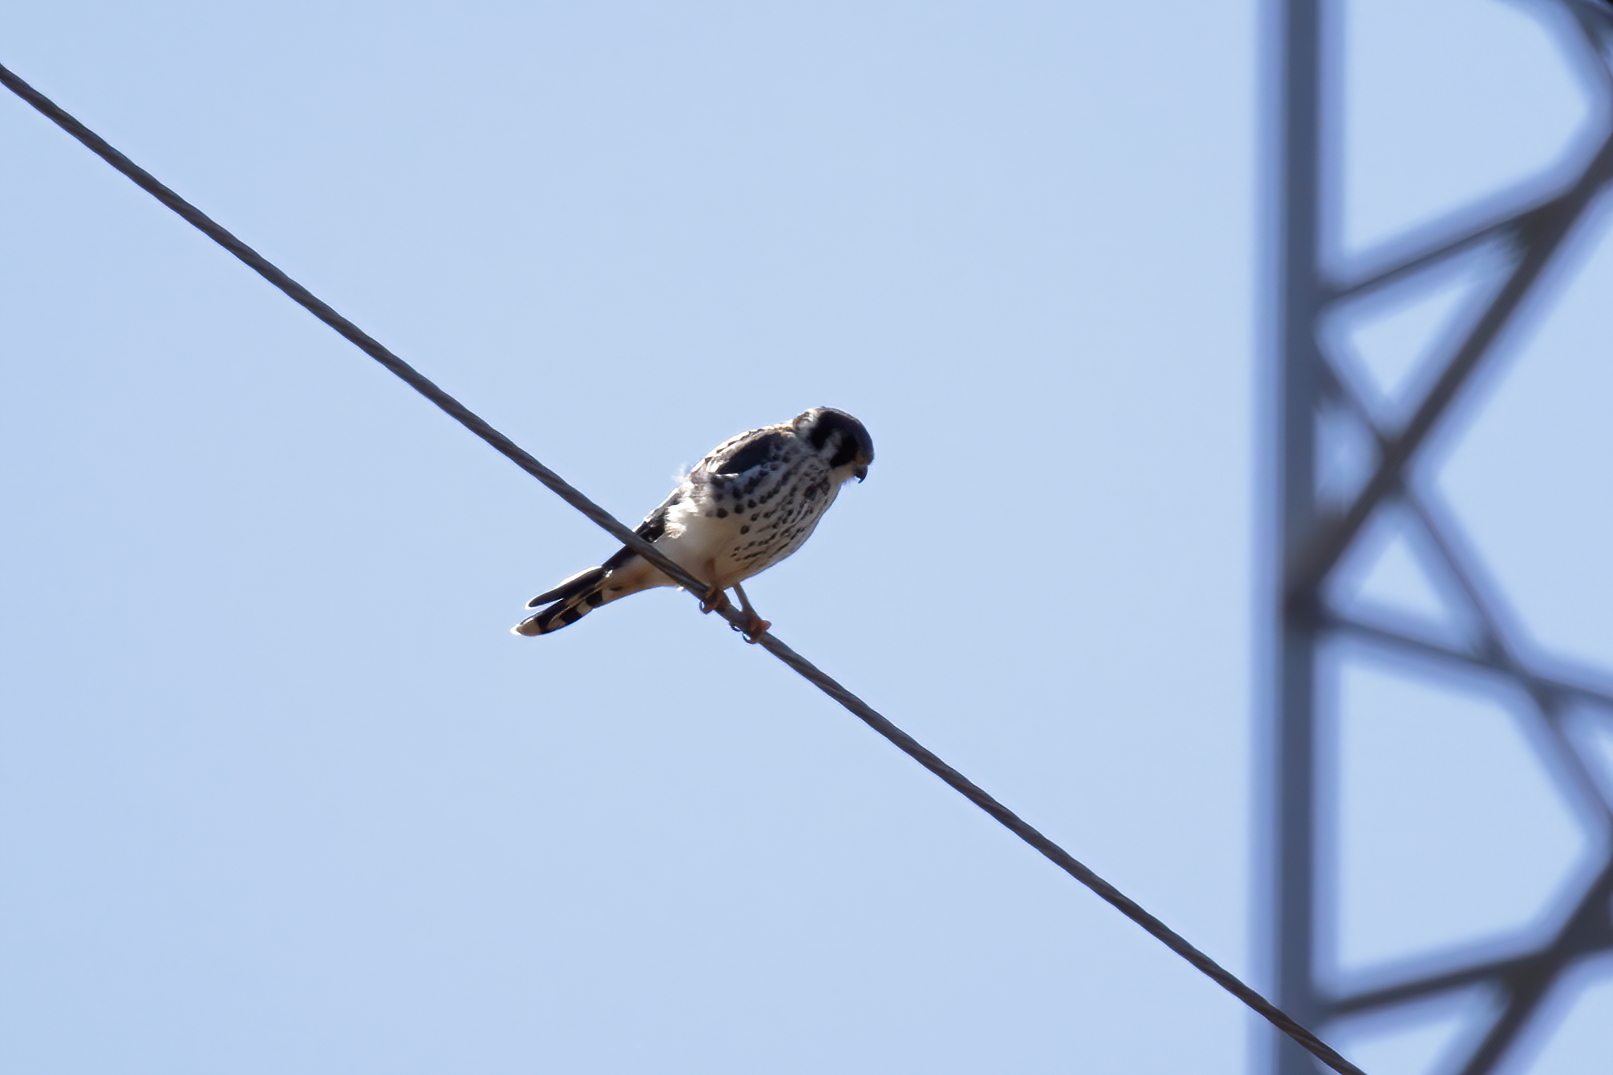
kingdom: Animalia
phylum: Chordata
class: Aves
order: Falconiformes
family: Falconidae
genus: Falco
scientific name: Falco sparverius
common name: American kestrel
